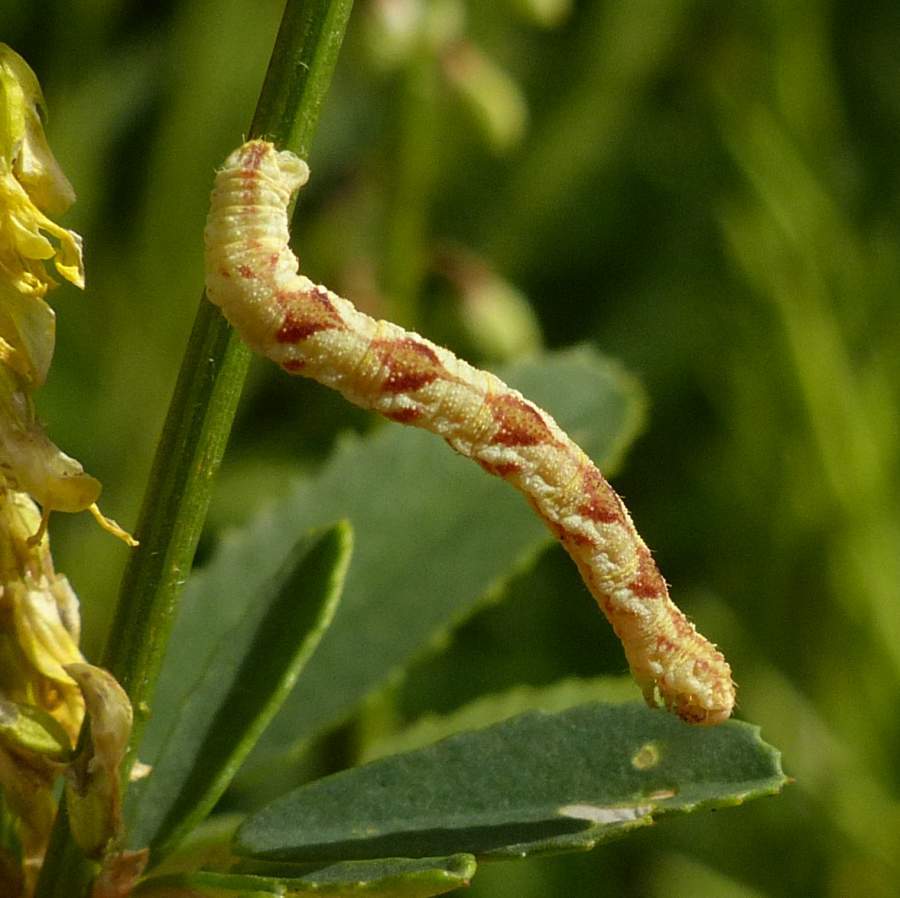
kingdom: Animalia
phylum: Arthropoda
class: Insecta
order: Lepidoptera
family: Geometridae
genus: Eupithecia
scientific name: Eupithecia miserulata
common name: Common eupithecia
